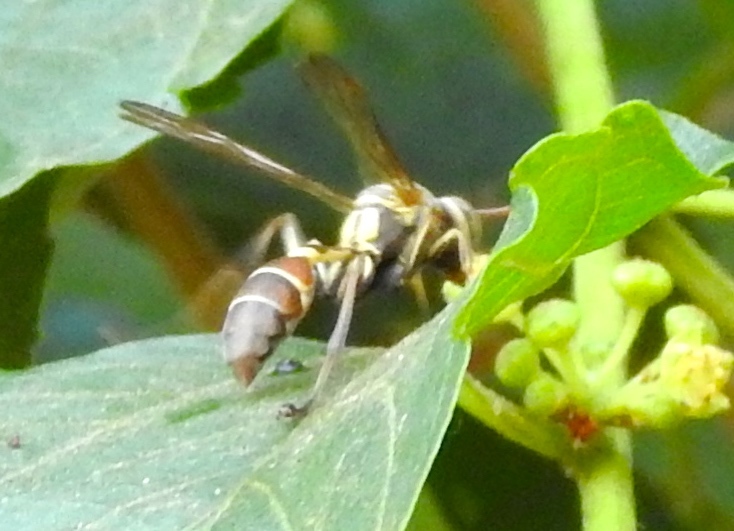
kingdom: Animalia
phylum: Arthropoda
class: Insecta
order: Hymenoptera
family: Vespidae
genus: Mischocyttarus
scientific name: Mischocyttarus
